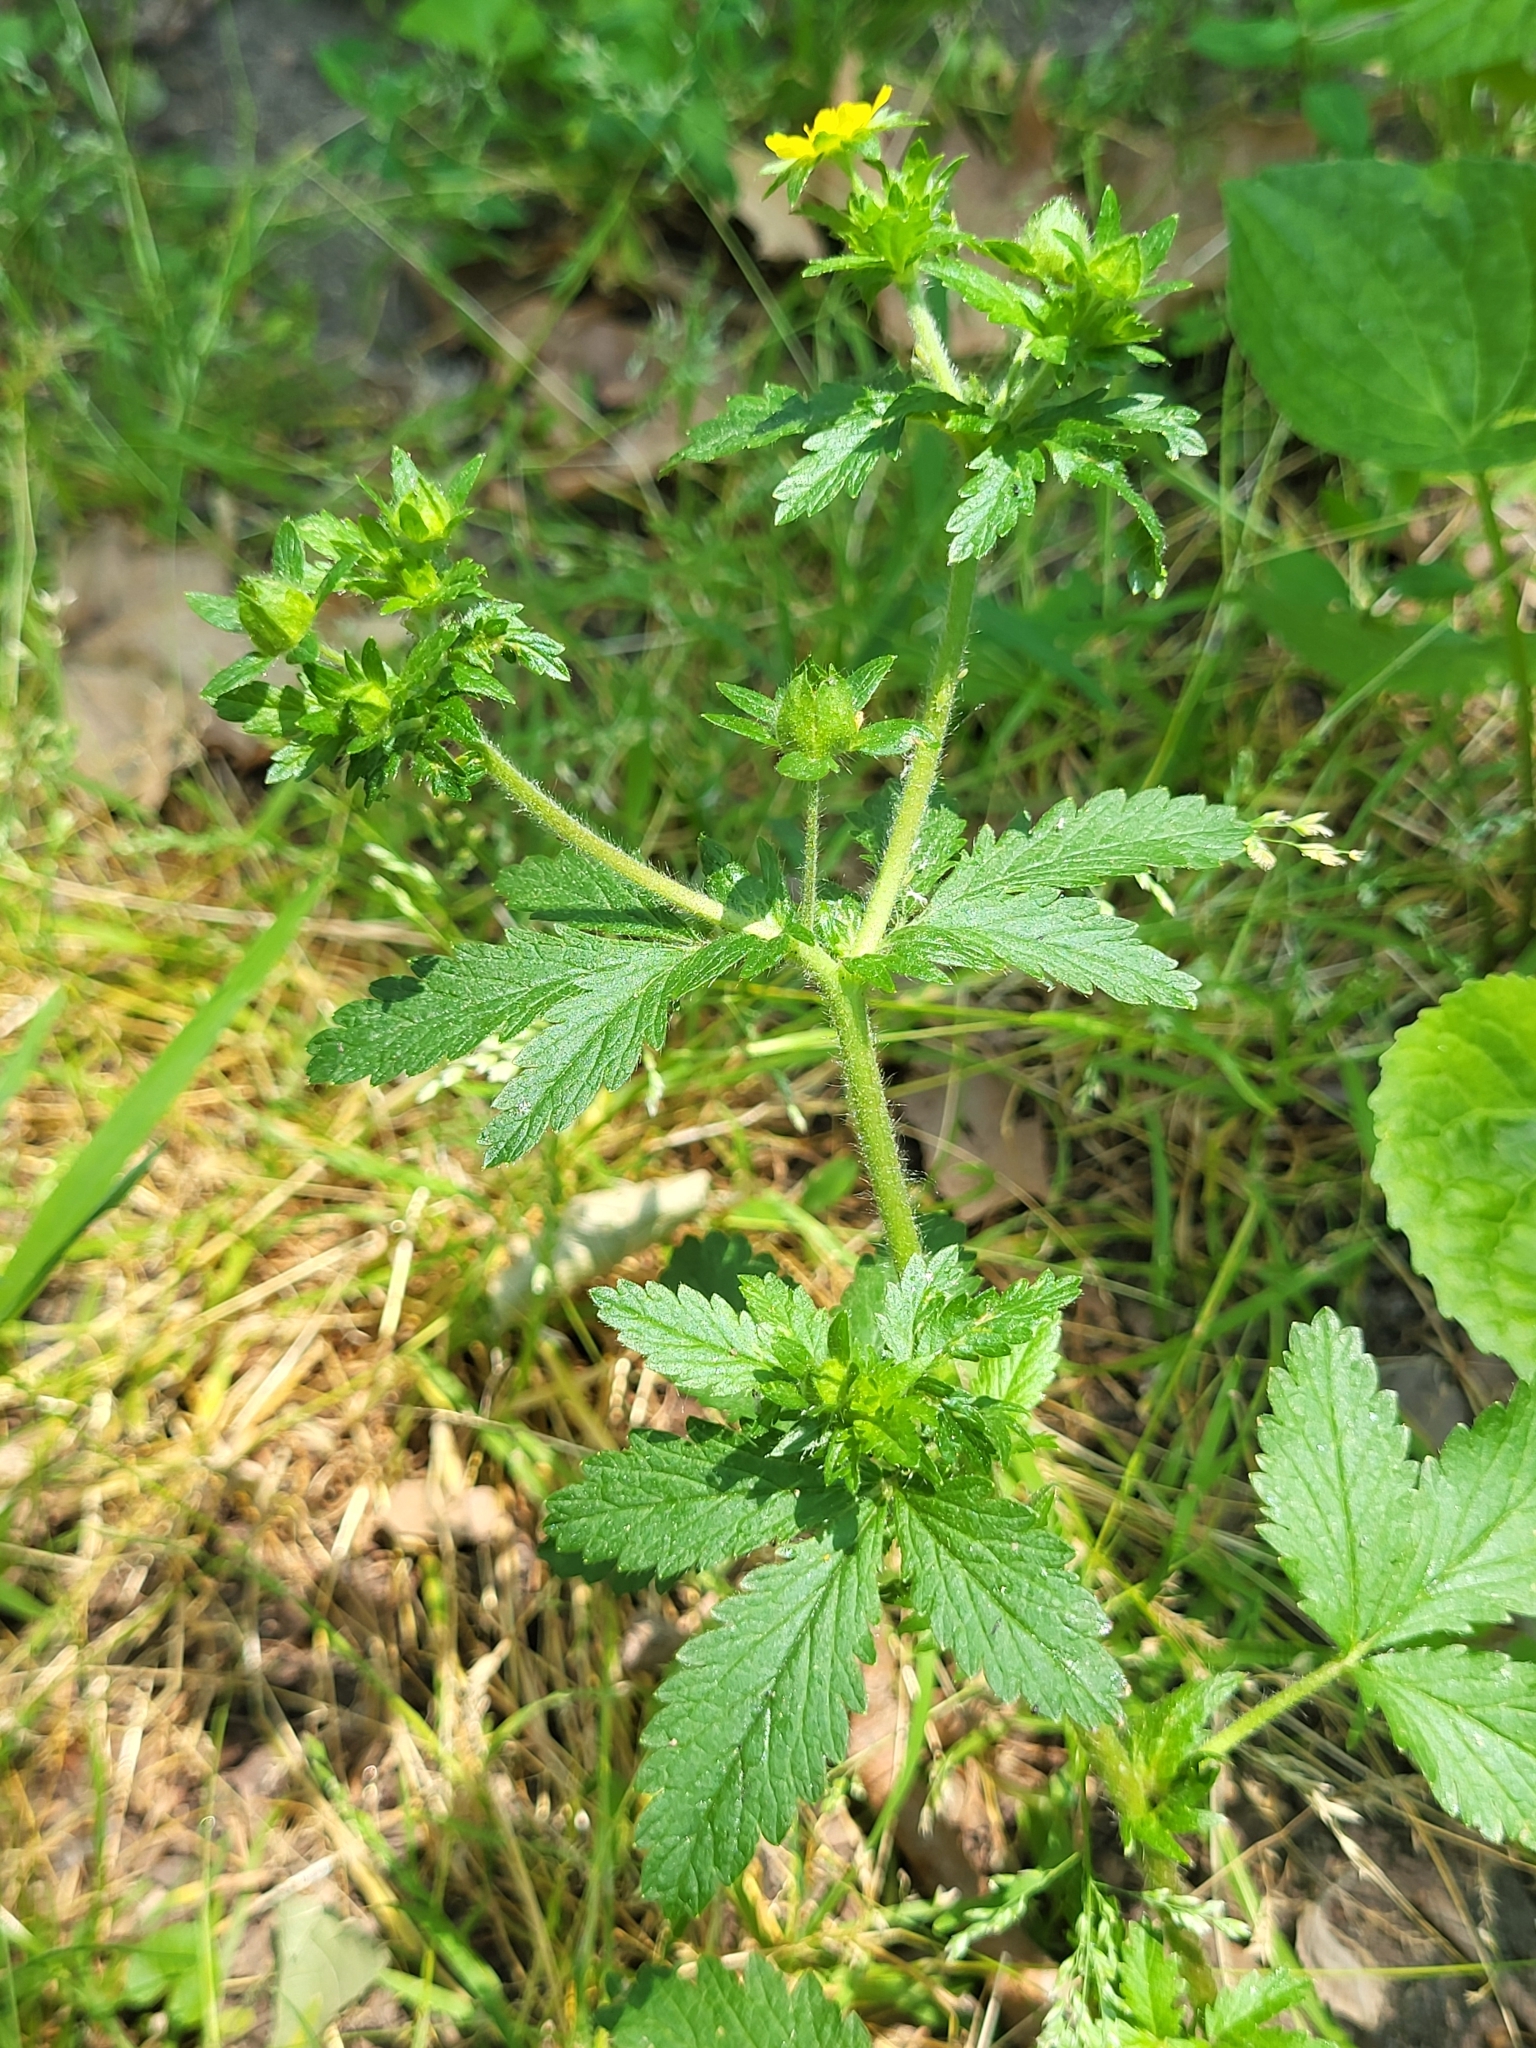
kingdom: Plantae
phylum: Tracheophyta
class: Magnoliopsida
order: Rosales
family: Rosaceae
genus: Potentilla
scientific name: Potentilla norvegica
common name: Ternate-leaved cinquefoil
